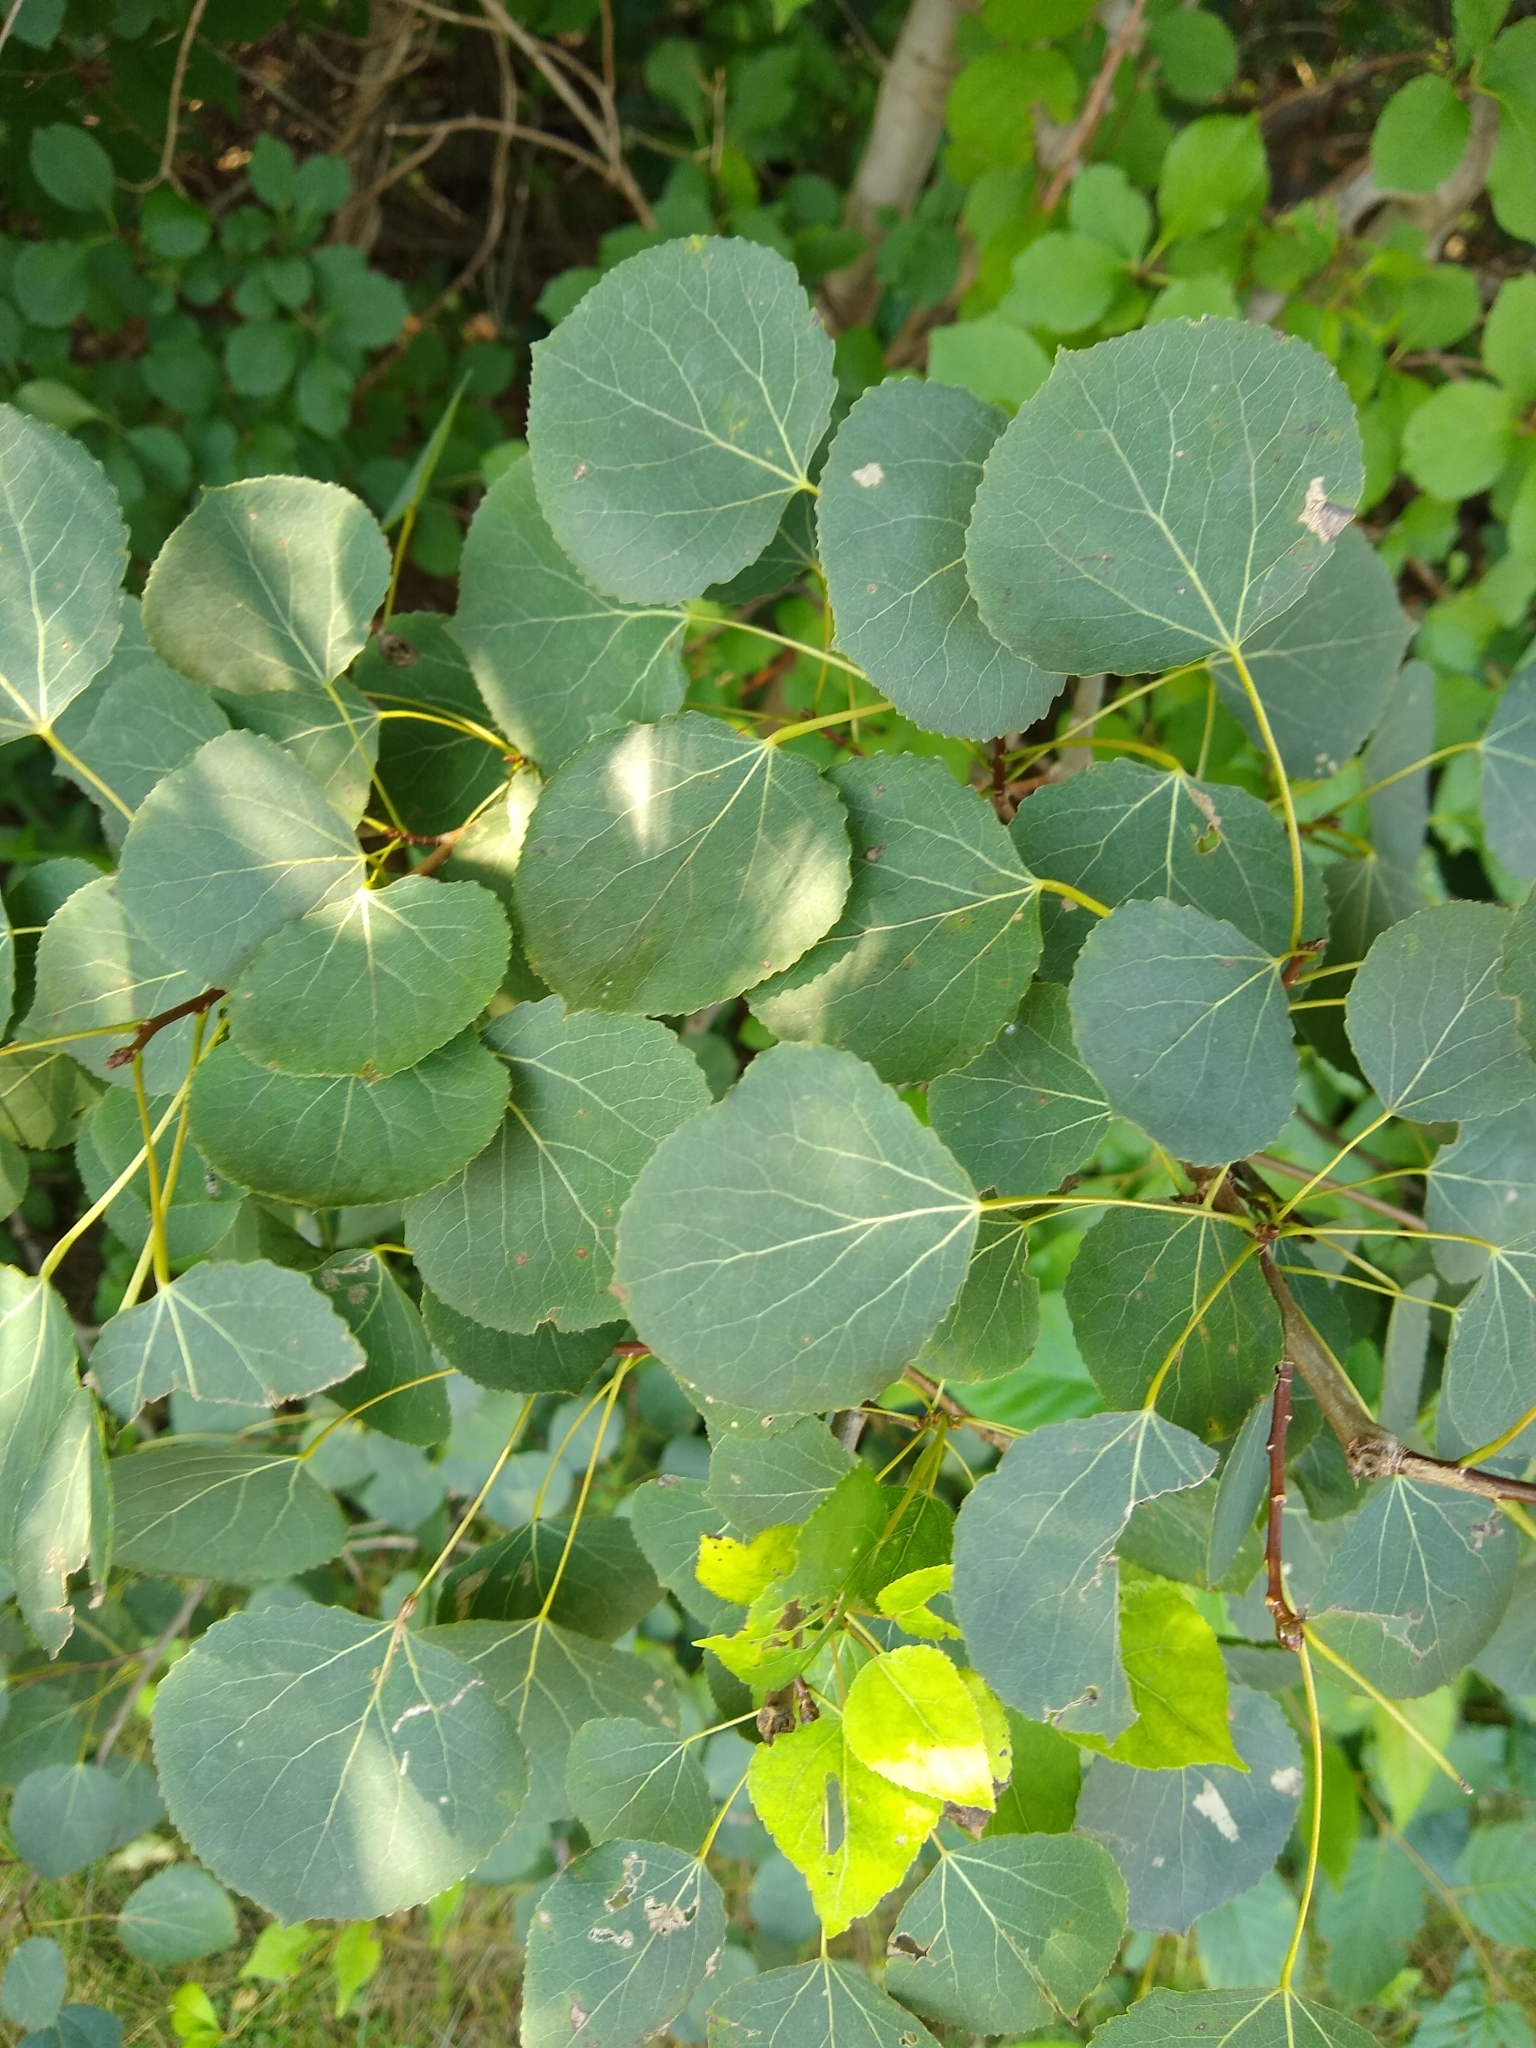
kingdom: Plantae
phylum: Tracheophyta
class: Magnoliopsida
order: Malpighiales
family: Salicaceae
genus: Populus
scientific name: Populus tremuloides
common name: Quaking aspen
